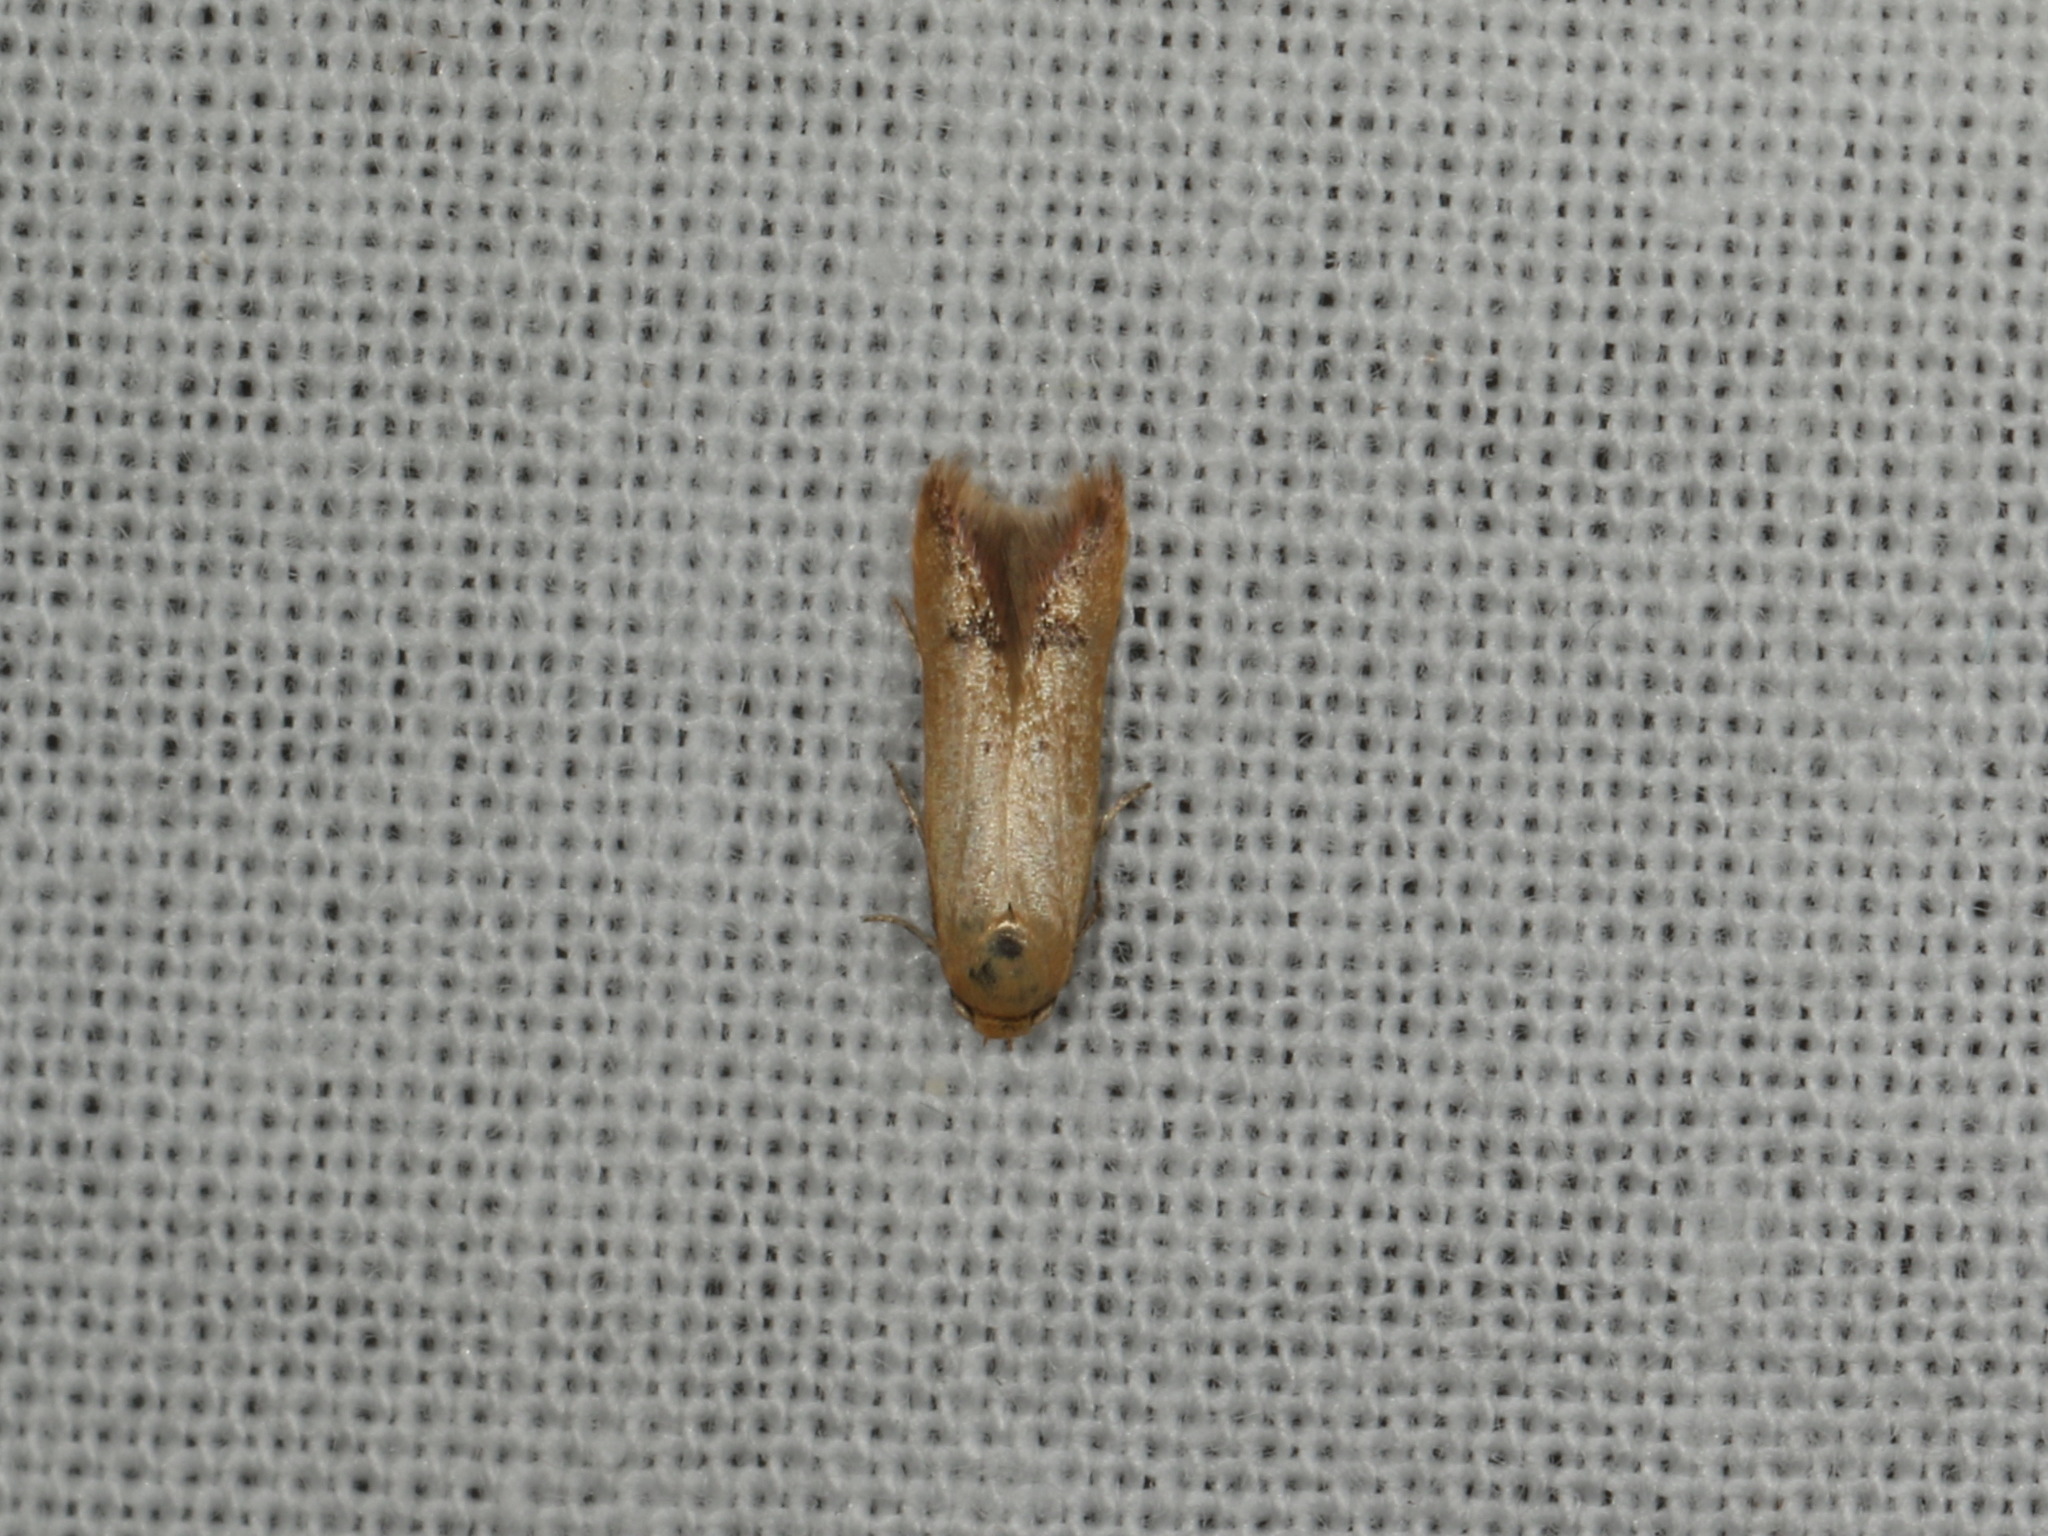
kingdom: Animalia
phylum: Arthropoda
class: Insecta
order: Lepidoptera
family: Oecophoridae
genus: Tachystola
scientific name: Tachystola hemisema
